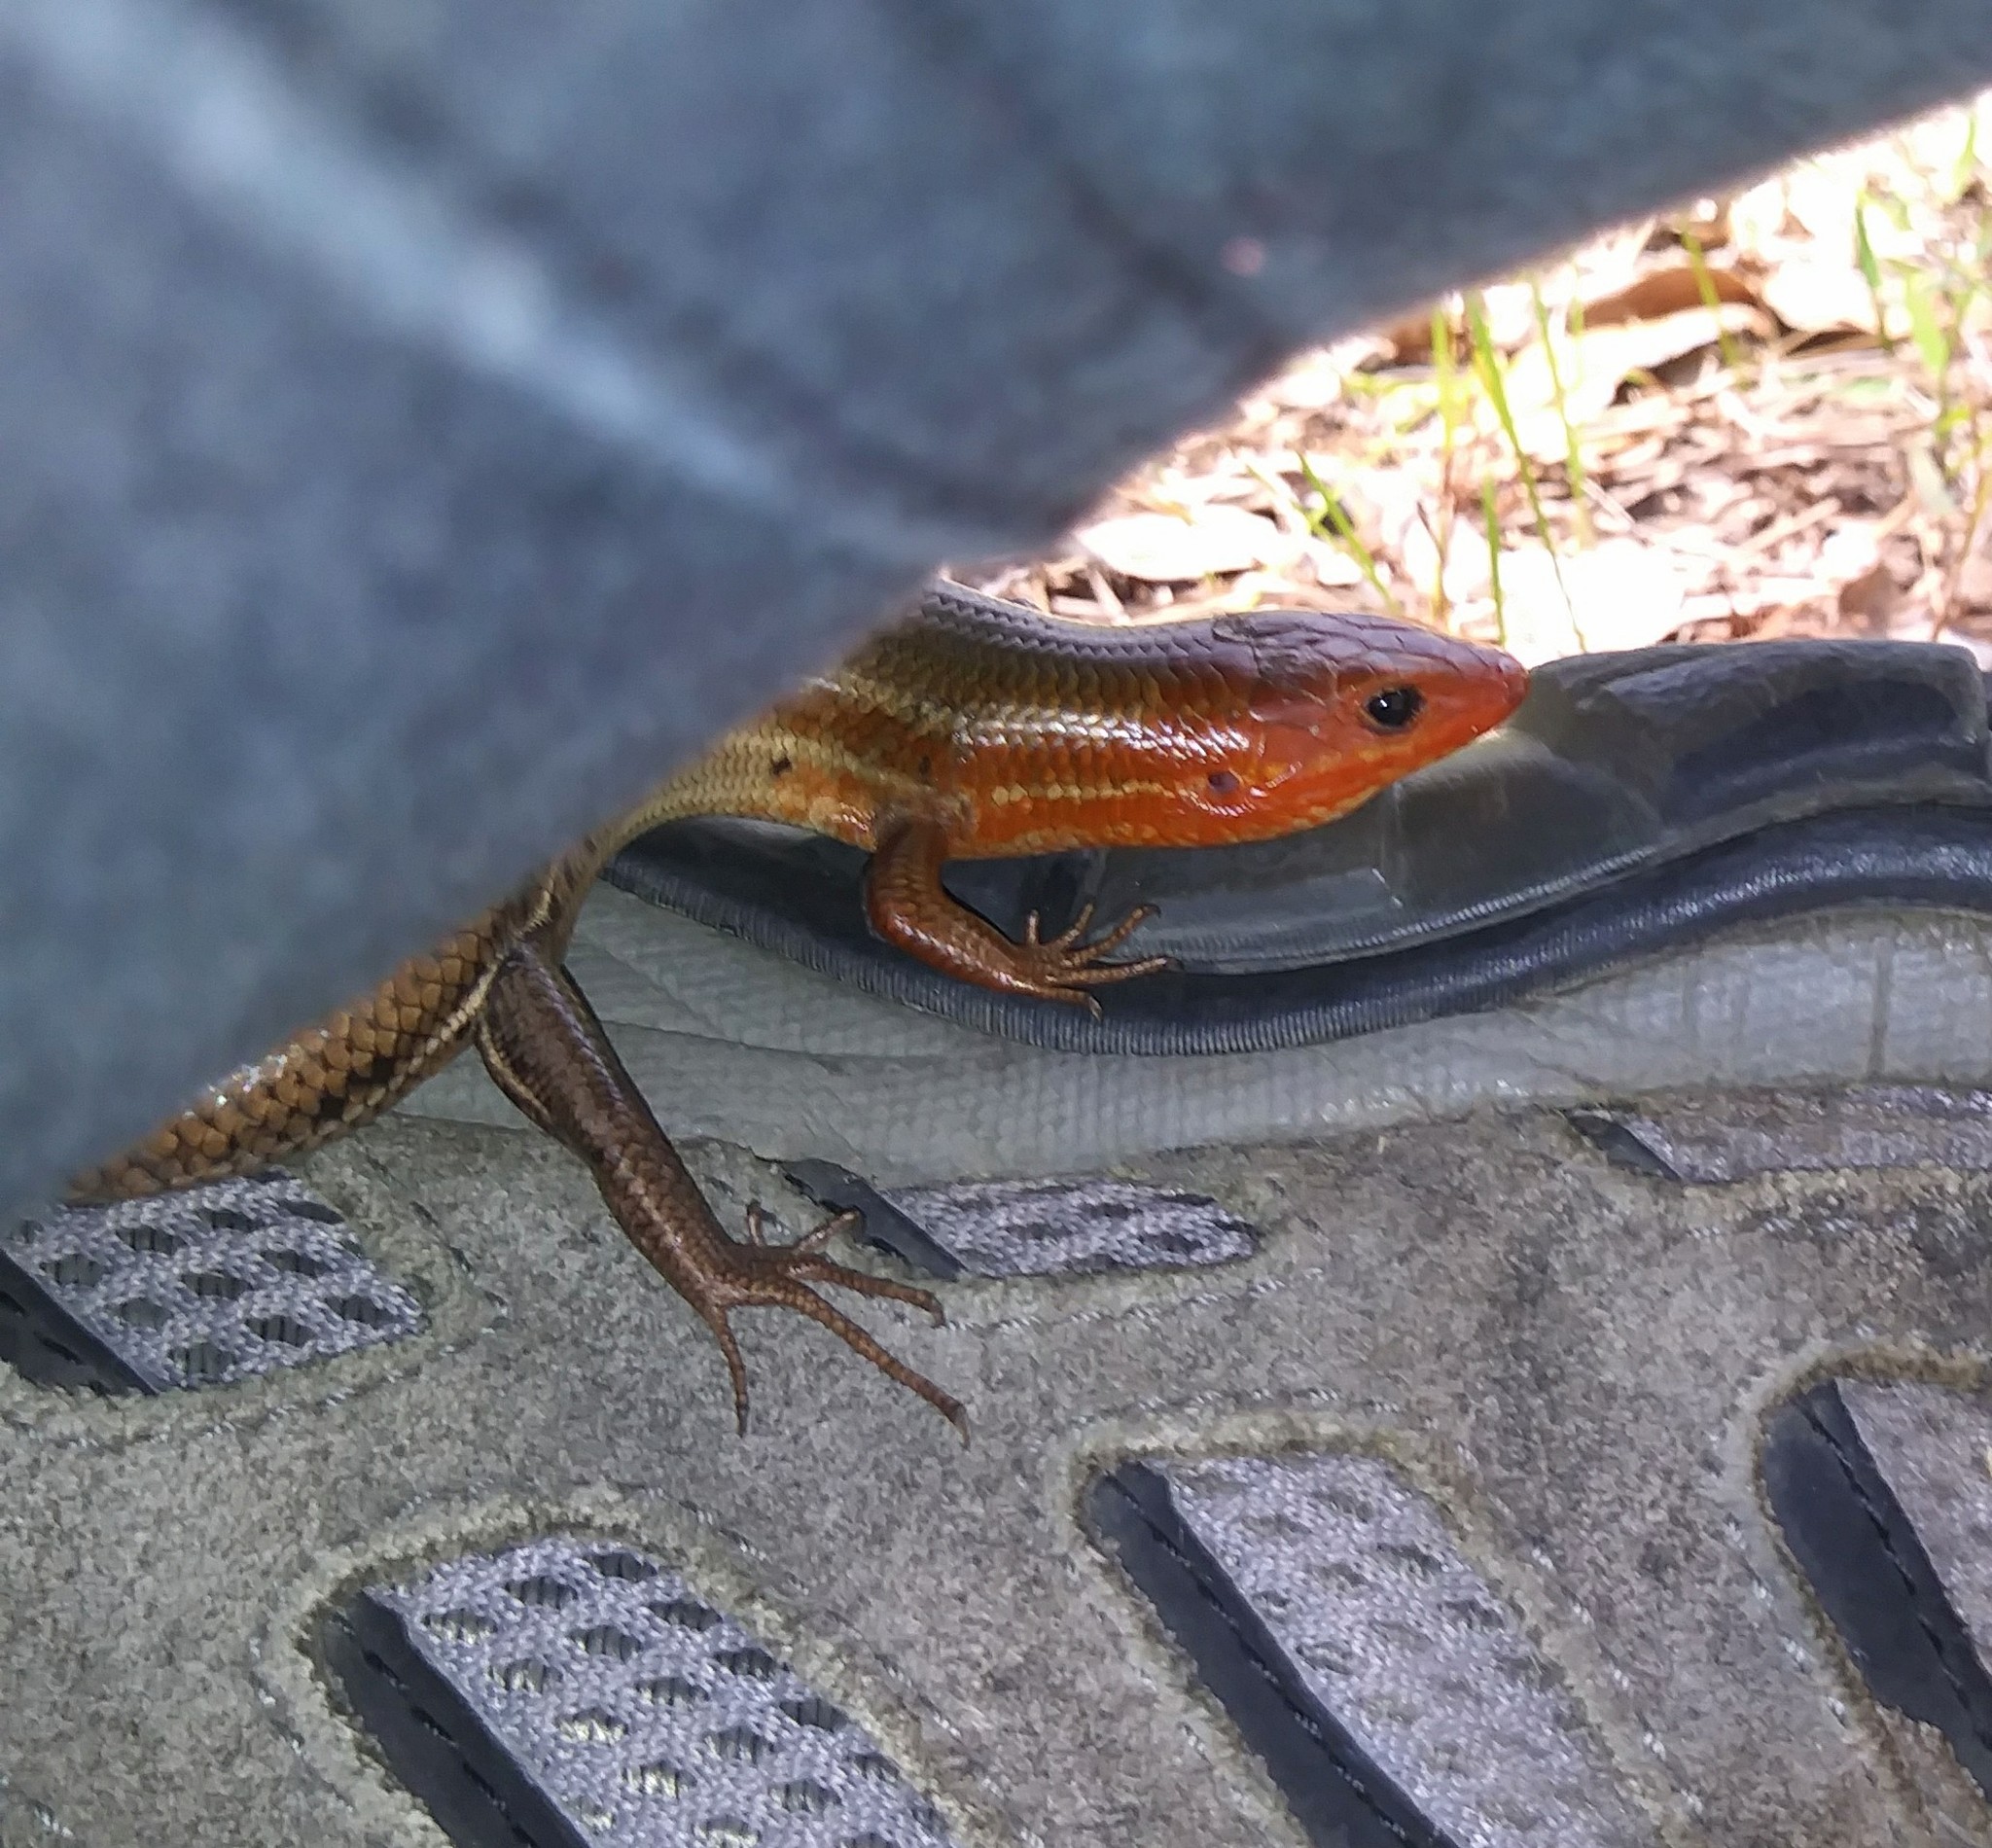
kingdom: Animalia
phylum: Chordata
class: Squamata
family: Scincidae
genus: Plestiodon
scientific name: Plestiodon inexpectatus
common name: Southeastern five-lined skink
